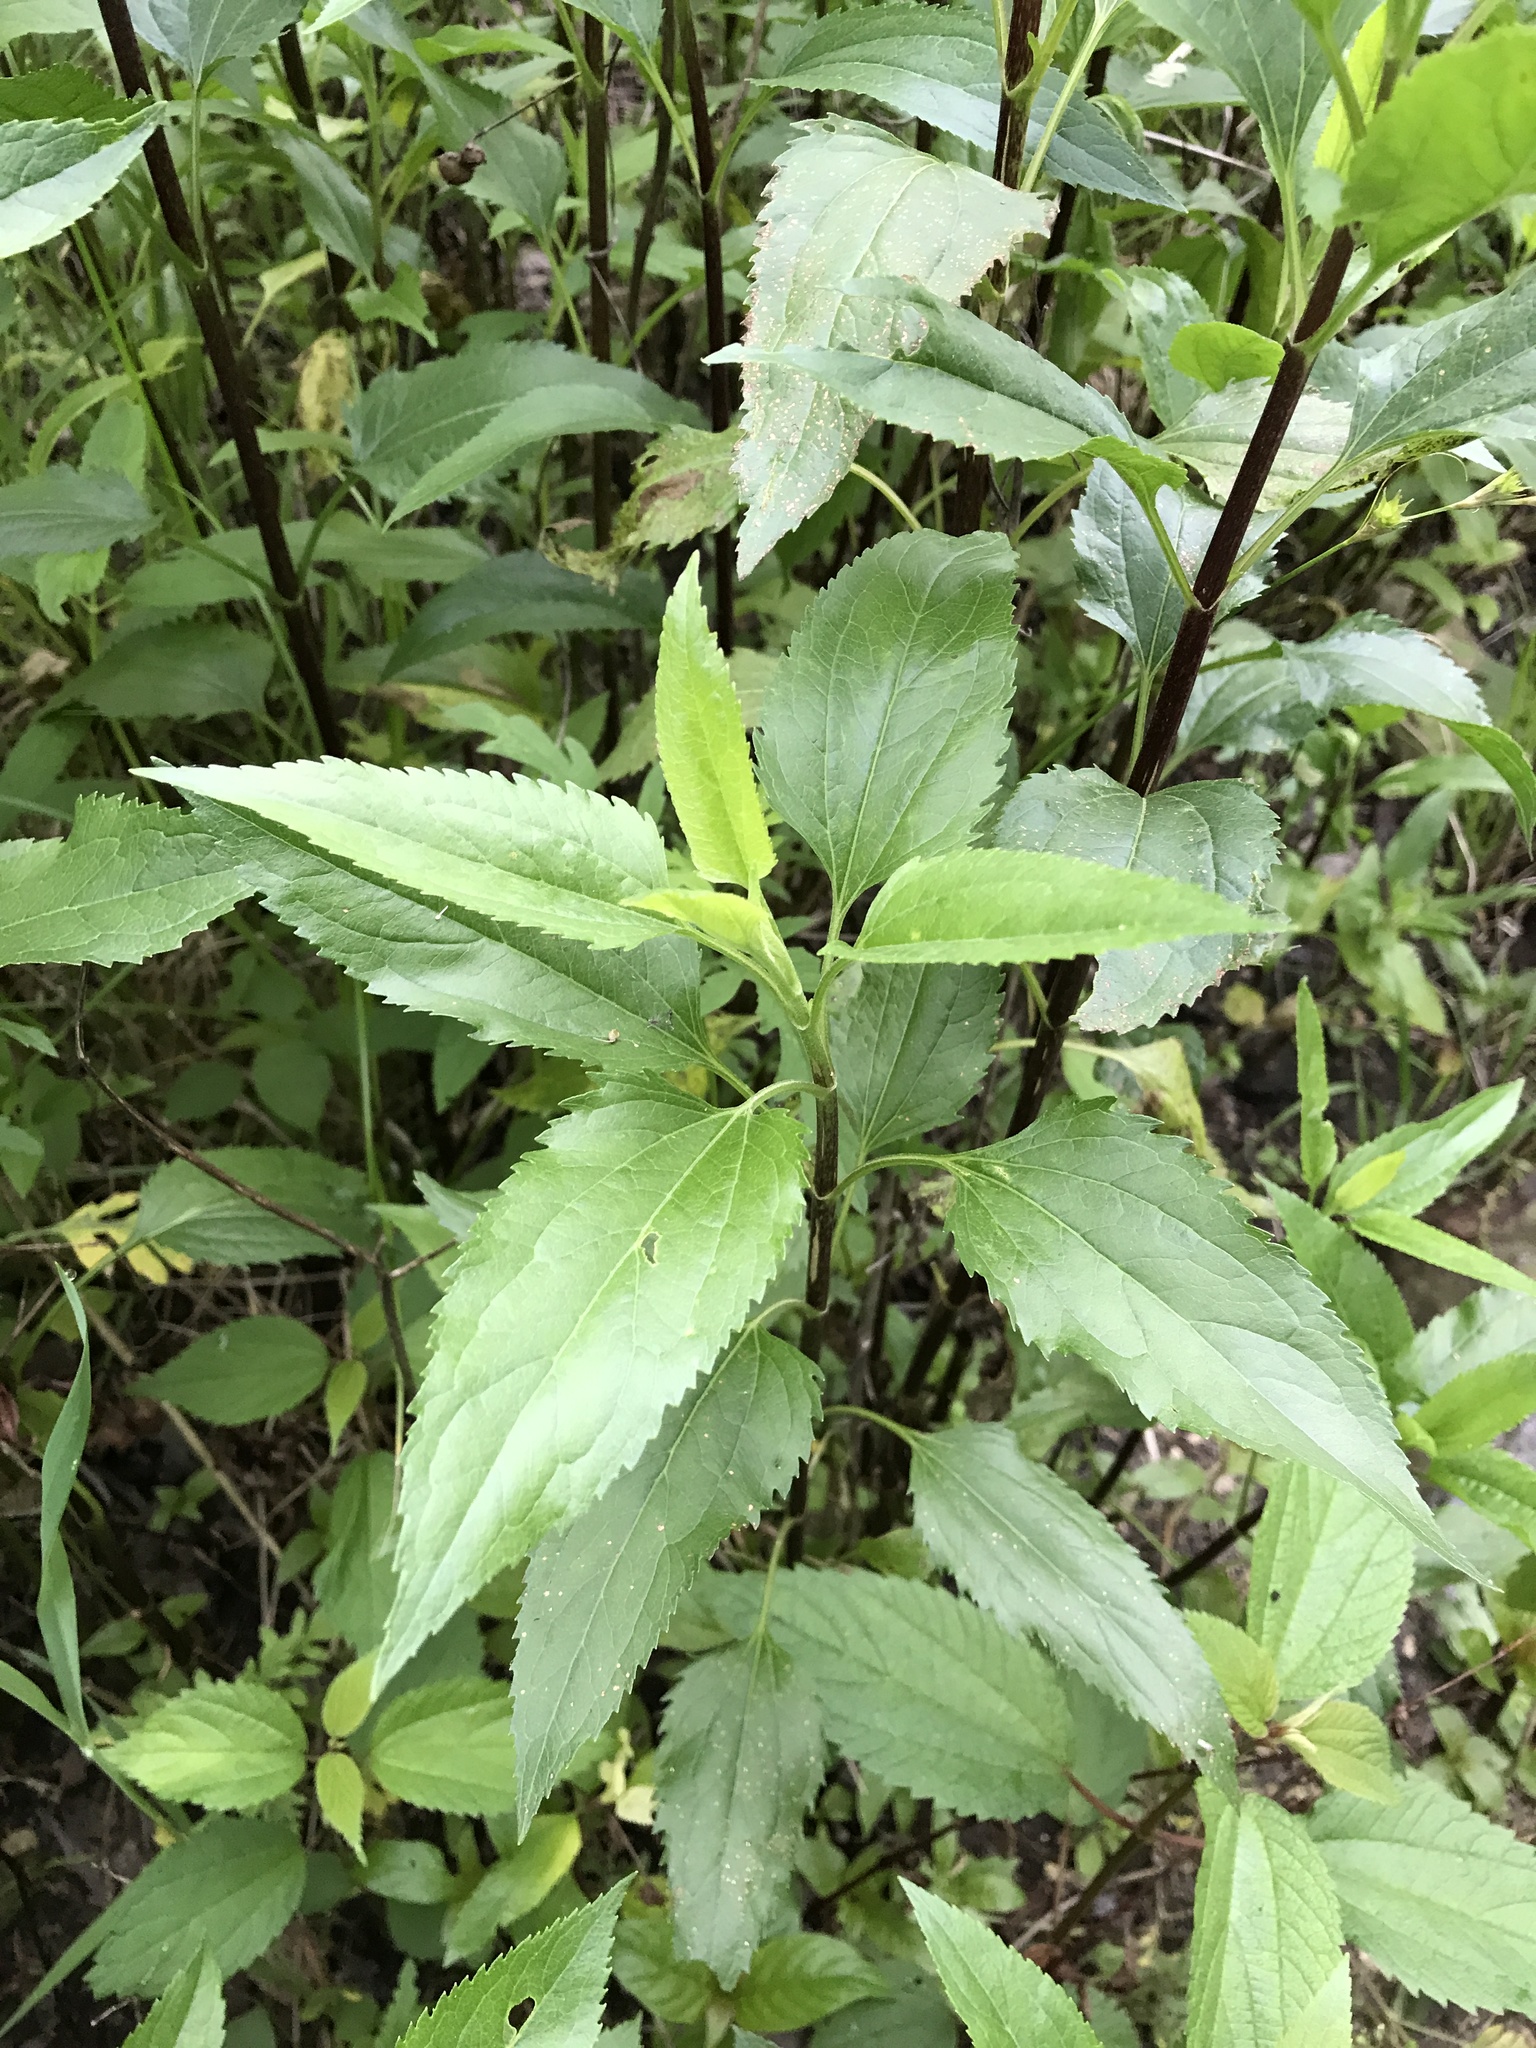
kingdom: Plantae
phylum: Tracheophyta
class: Magnoliopsida
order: Asterales
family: Asteraceae
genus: Eupatorium
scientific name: Eupatorium serotinum
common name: Late boneset
